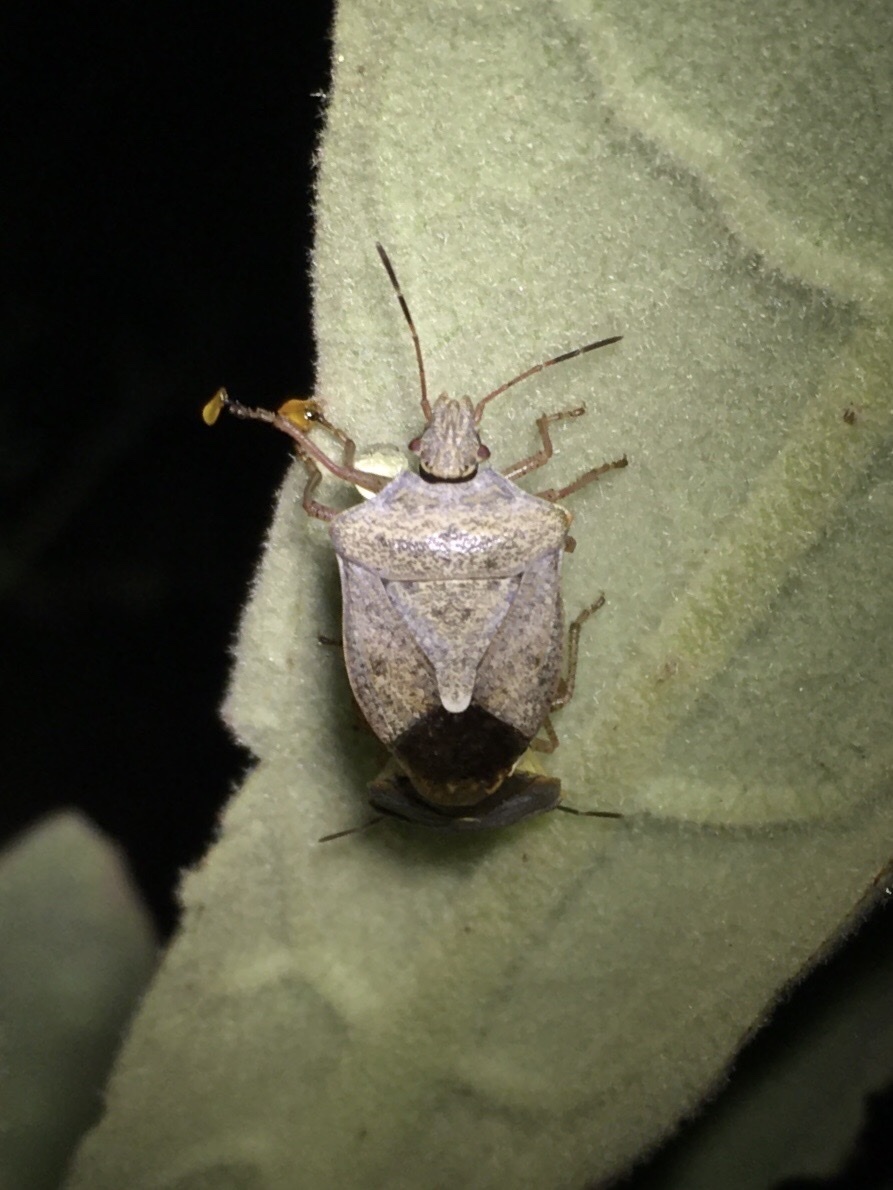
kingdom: Animalia
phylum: Arthropoda
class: Insecta
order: Hemiptera
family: Pentatomidae
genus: Euschistus
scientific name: Euschistus servus
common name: Brown stink bug
